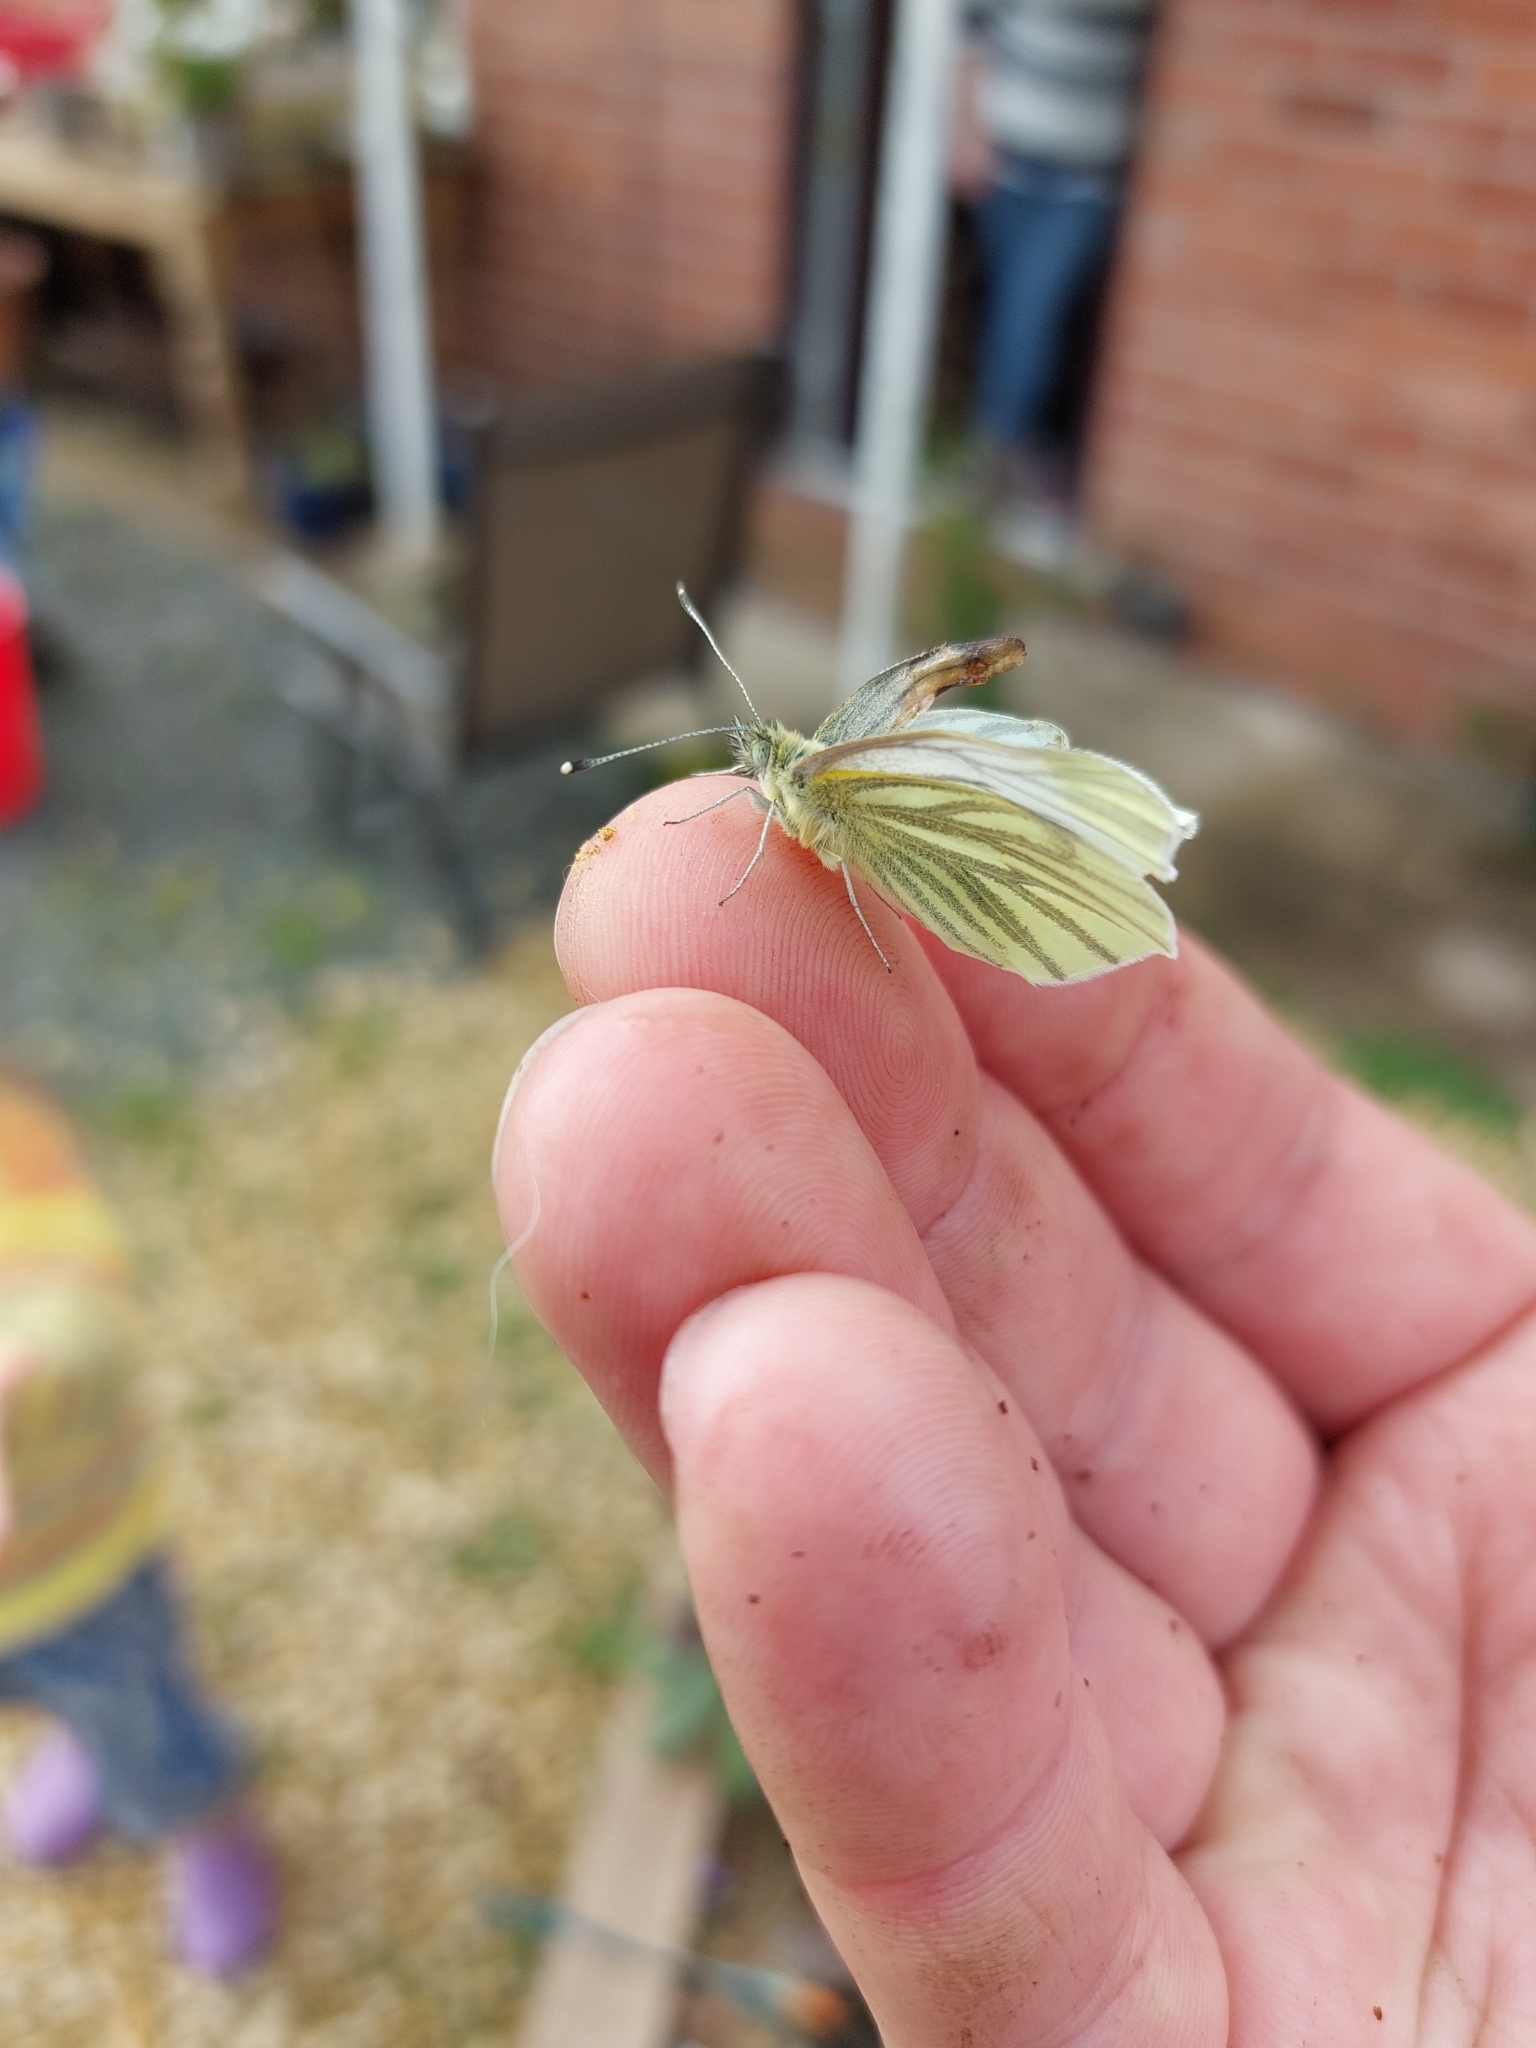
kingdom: Animalia
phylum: Arthropoda
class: Insecta
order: Lepidoptera
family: Pieridae
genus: Pieris
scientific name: Pieris napi
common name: Green-veined white
